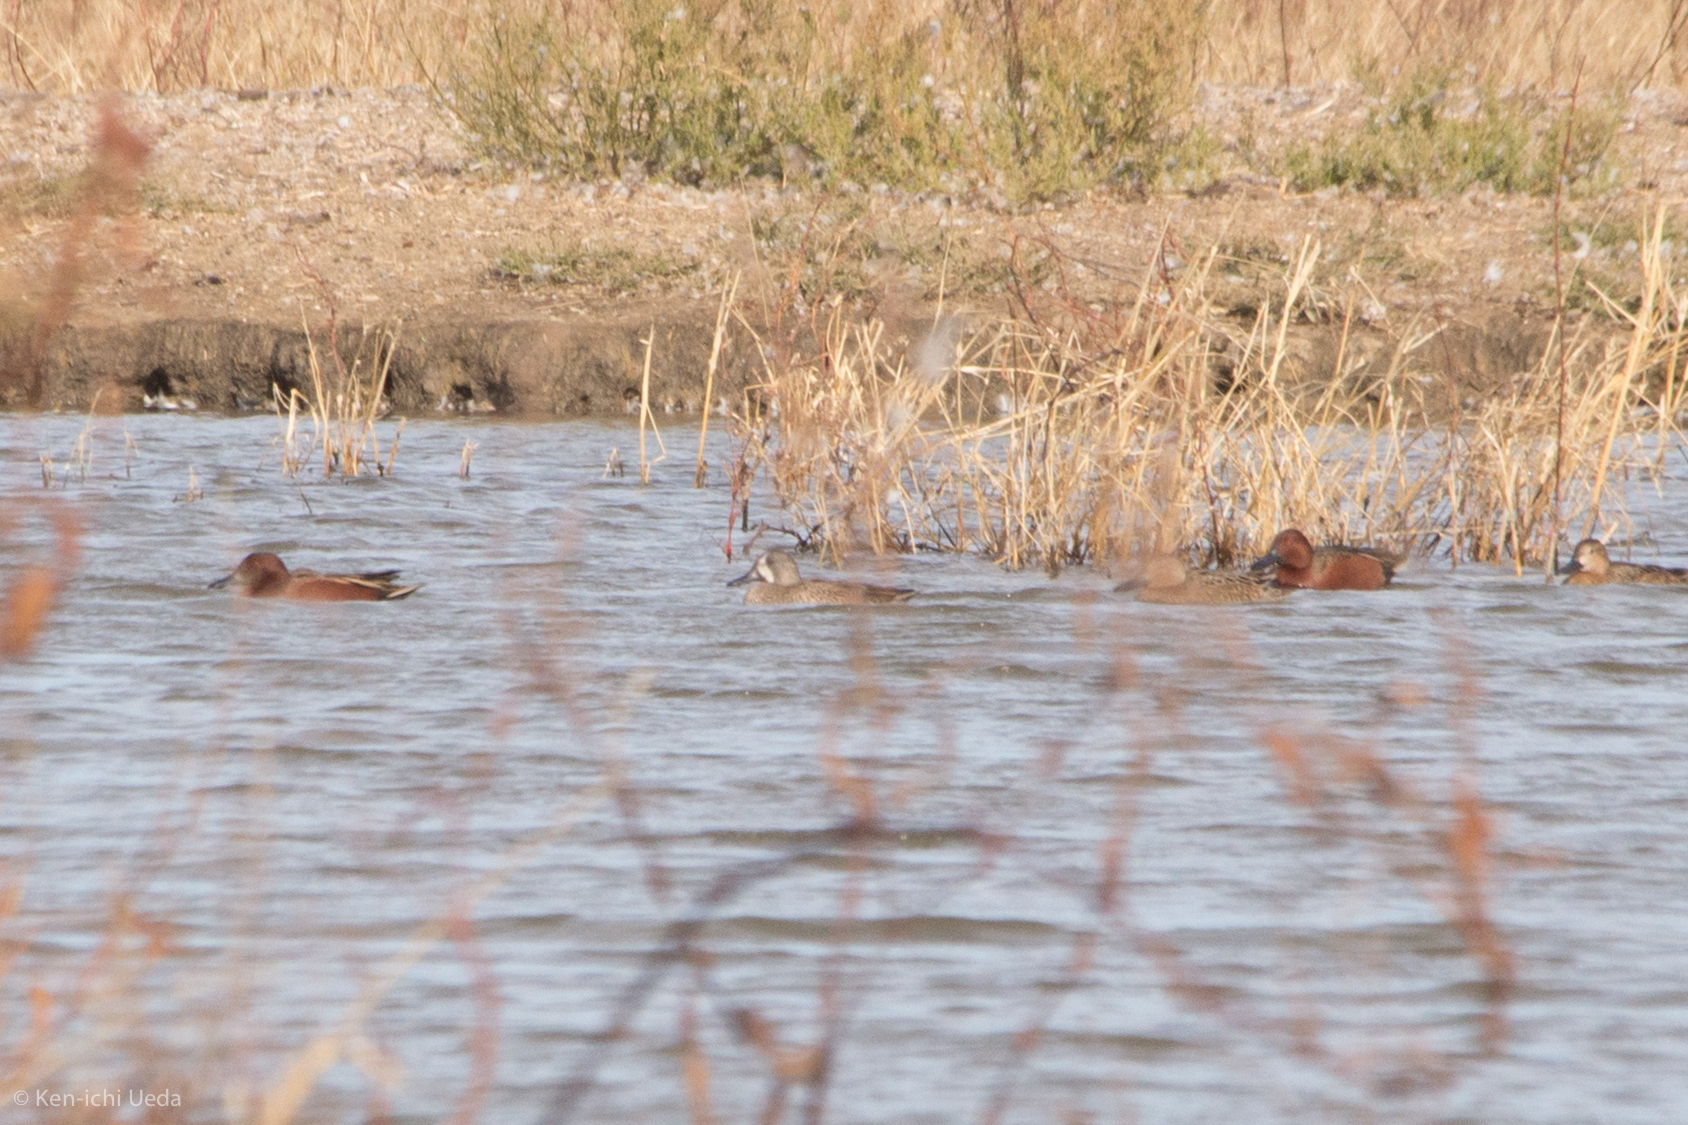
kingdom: Animalia
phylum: Chordata
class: Aves
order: Anseriformes
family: Anatidae
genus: Spatula
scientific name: Spatula discors
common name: Blue-winged teal
